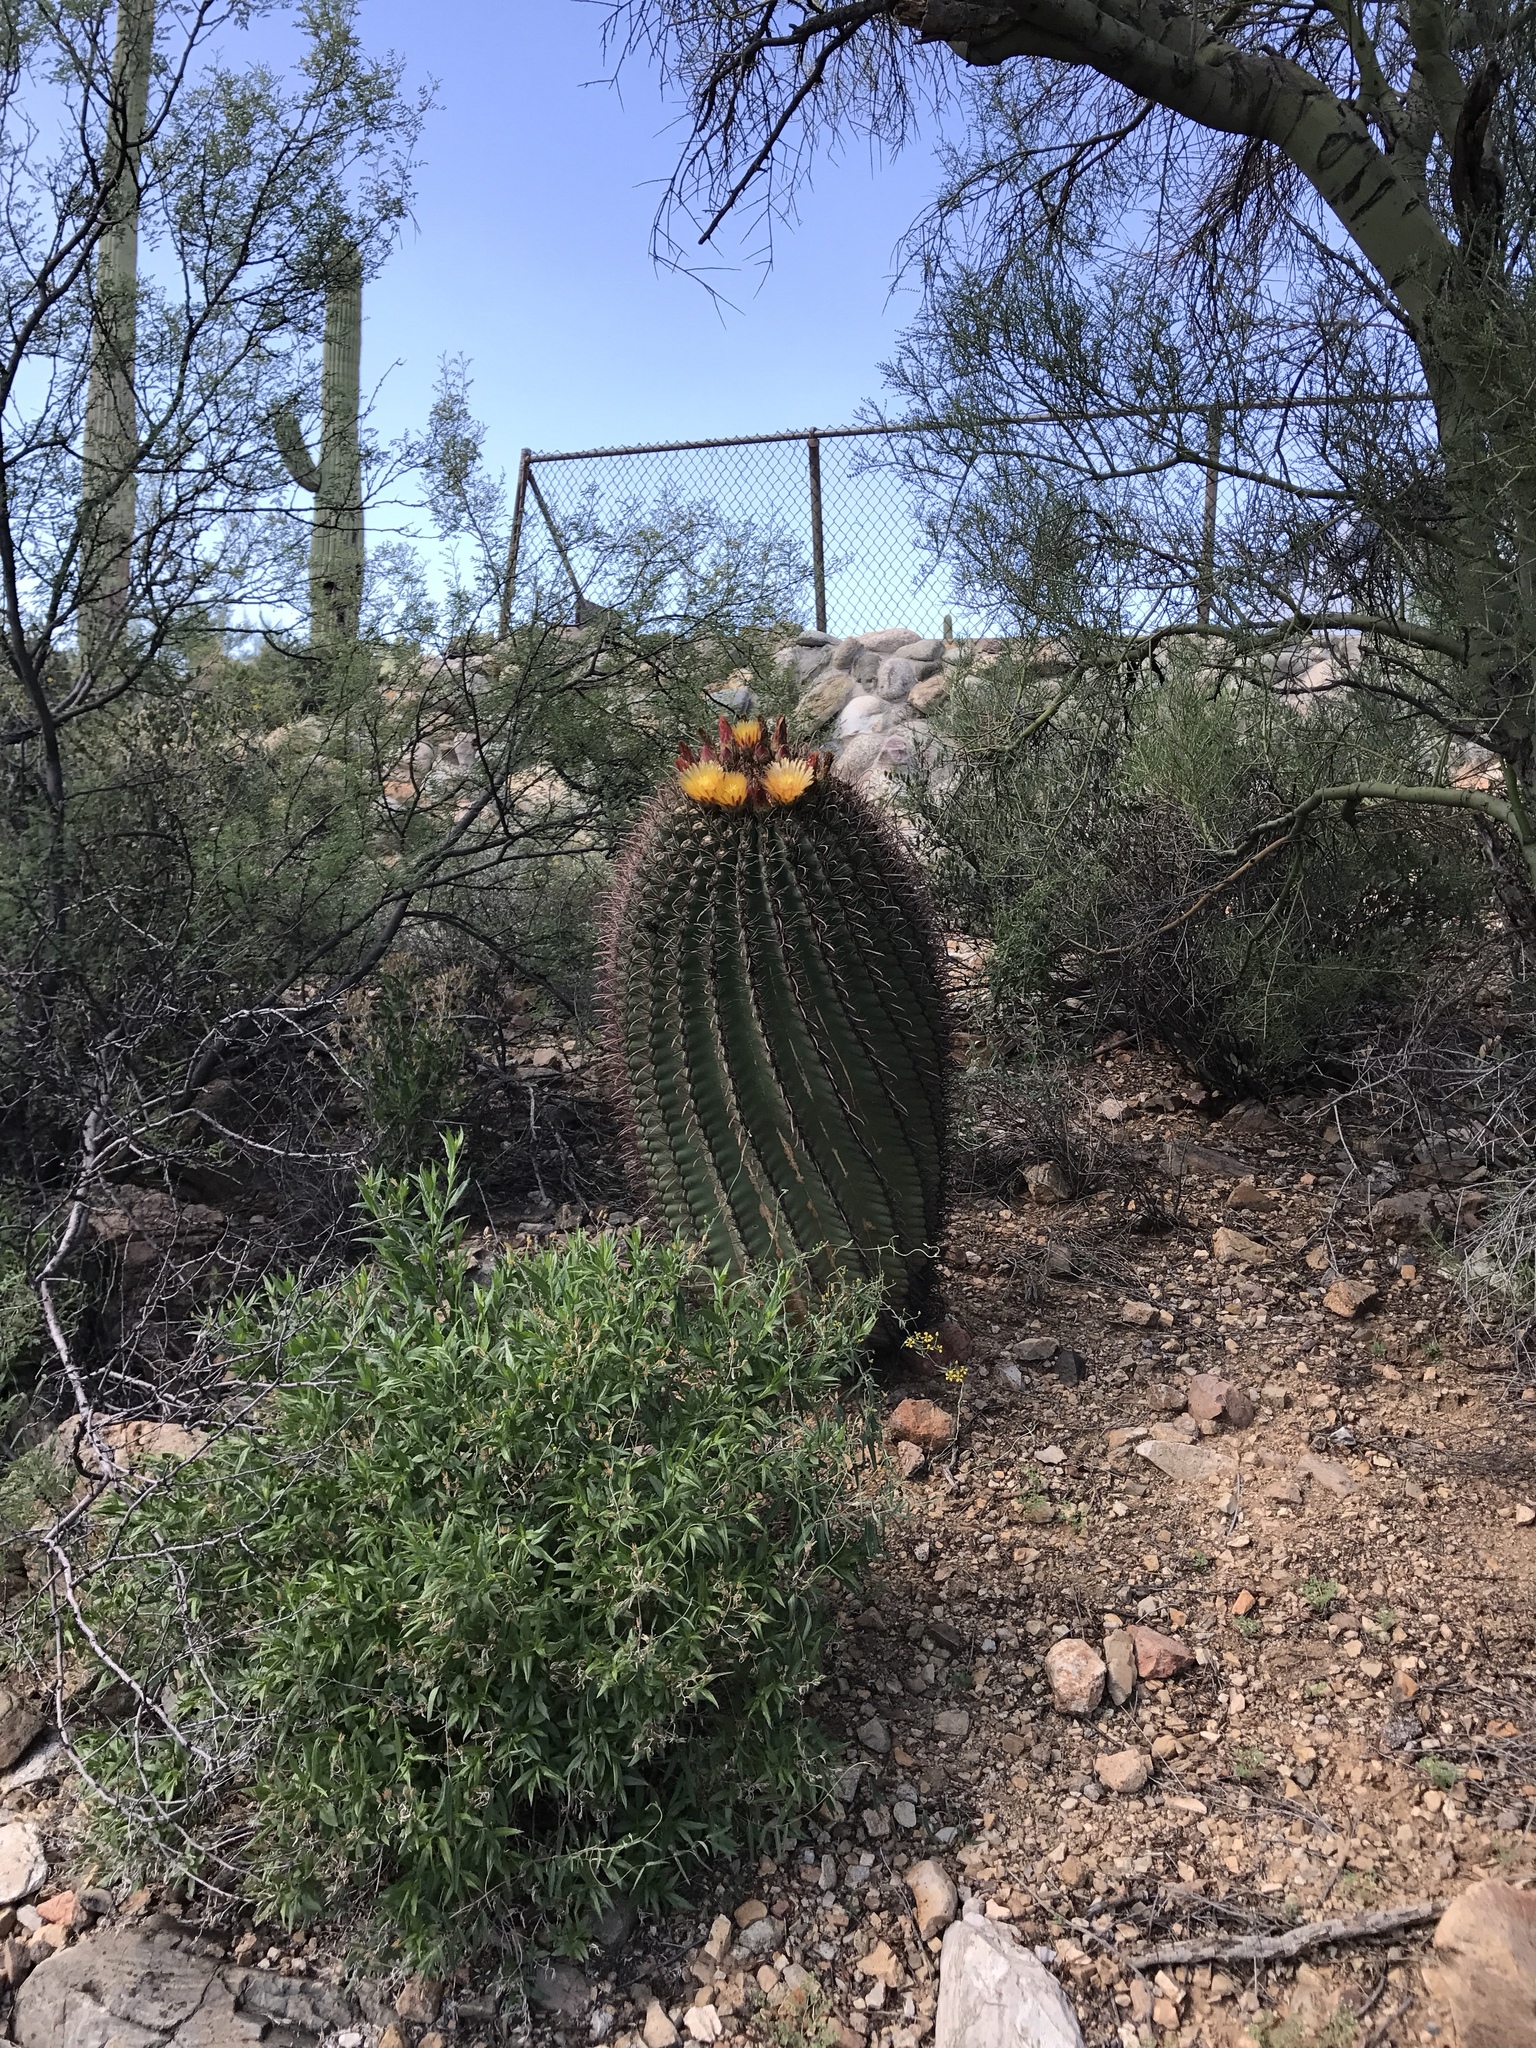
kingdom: Plantae
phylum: Tracheophyta
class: Magnoliopsida
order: Caryophyllales
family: Cactaceae
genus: Ferocactus
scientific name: Ferocactus wislizeni
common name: Candy barrel cactus
